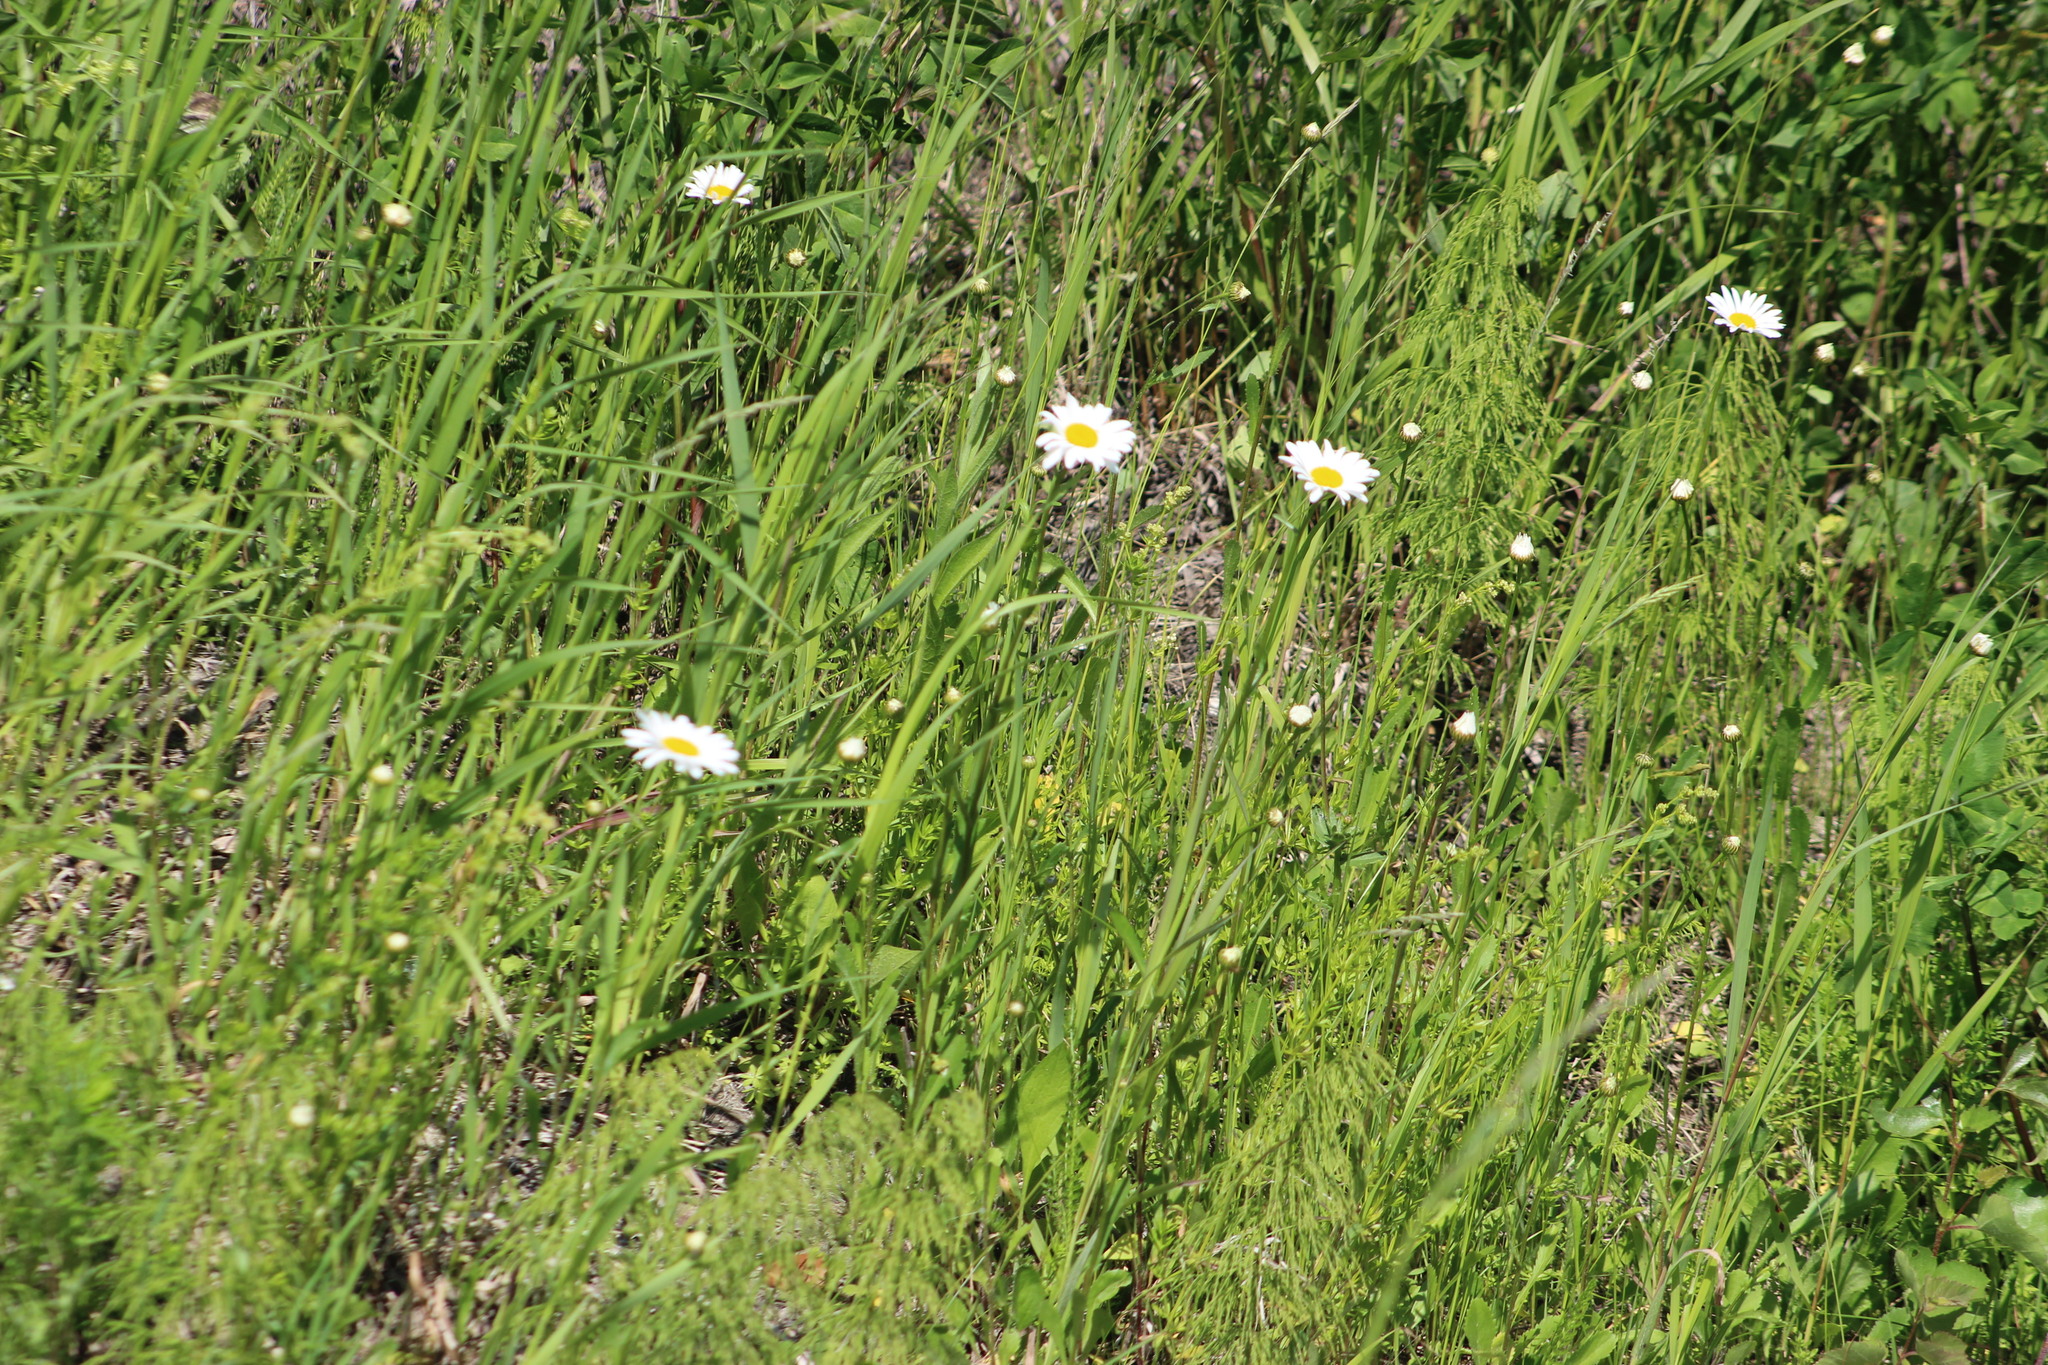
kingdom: Plantae
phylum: Tracheophyta
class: Magnoliopsida
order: Asterales
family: Asteraceae
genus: Leucanthemum
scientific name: Leucanthemum ircutianum
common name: Daisy
